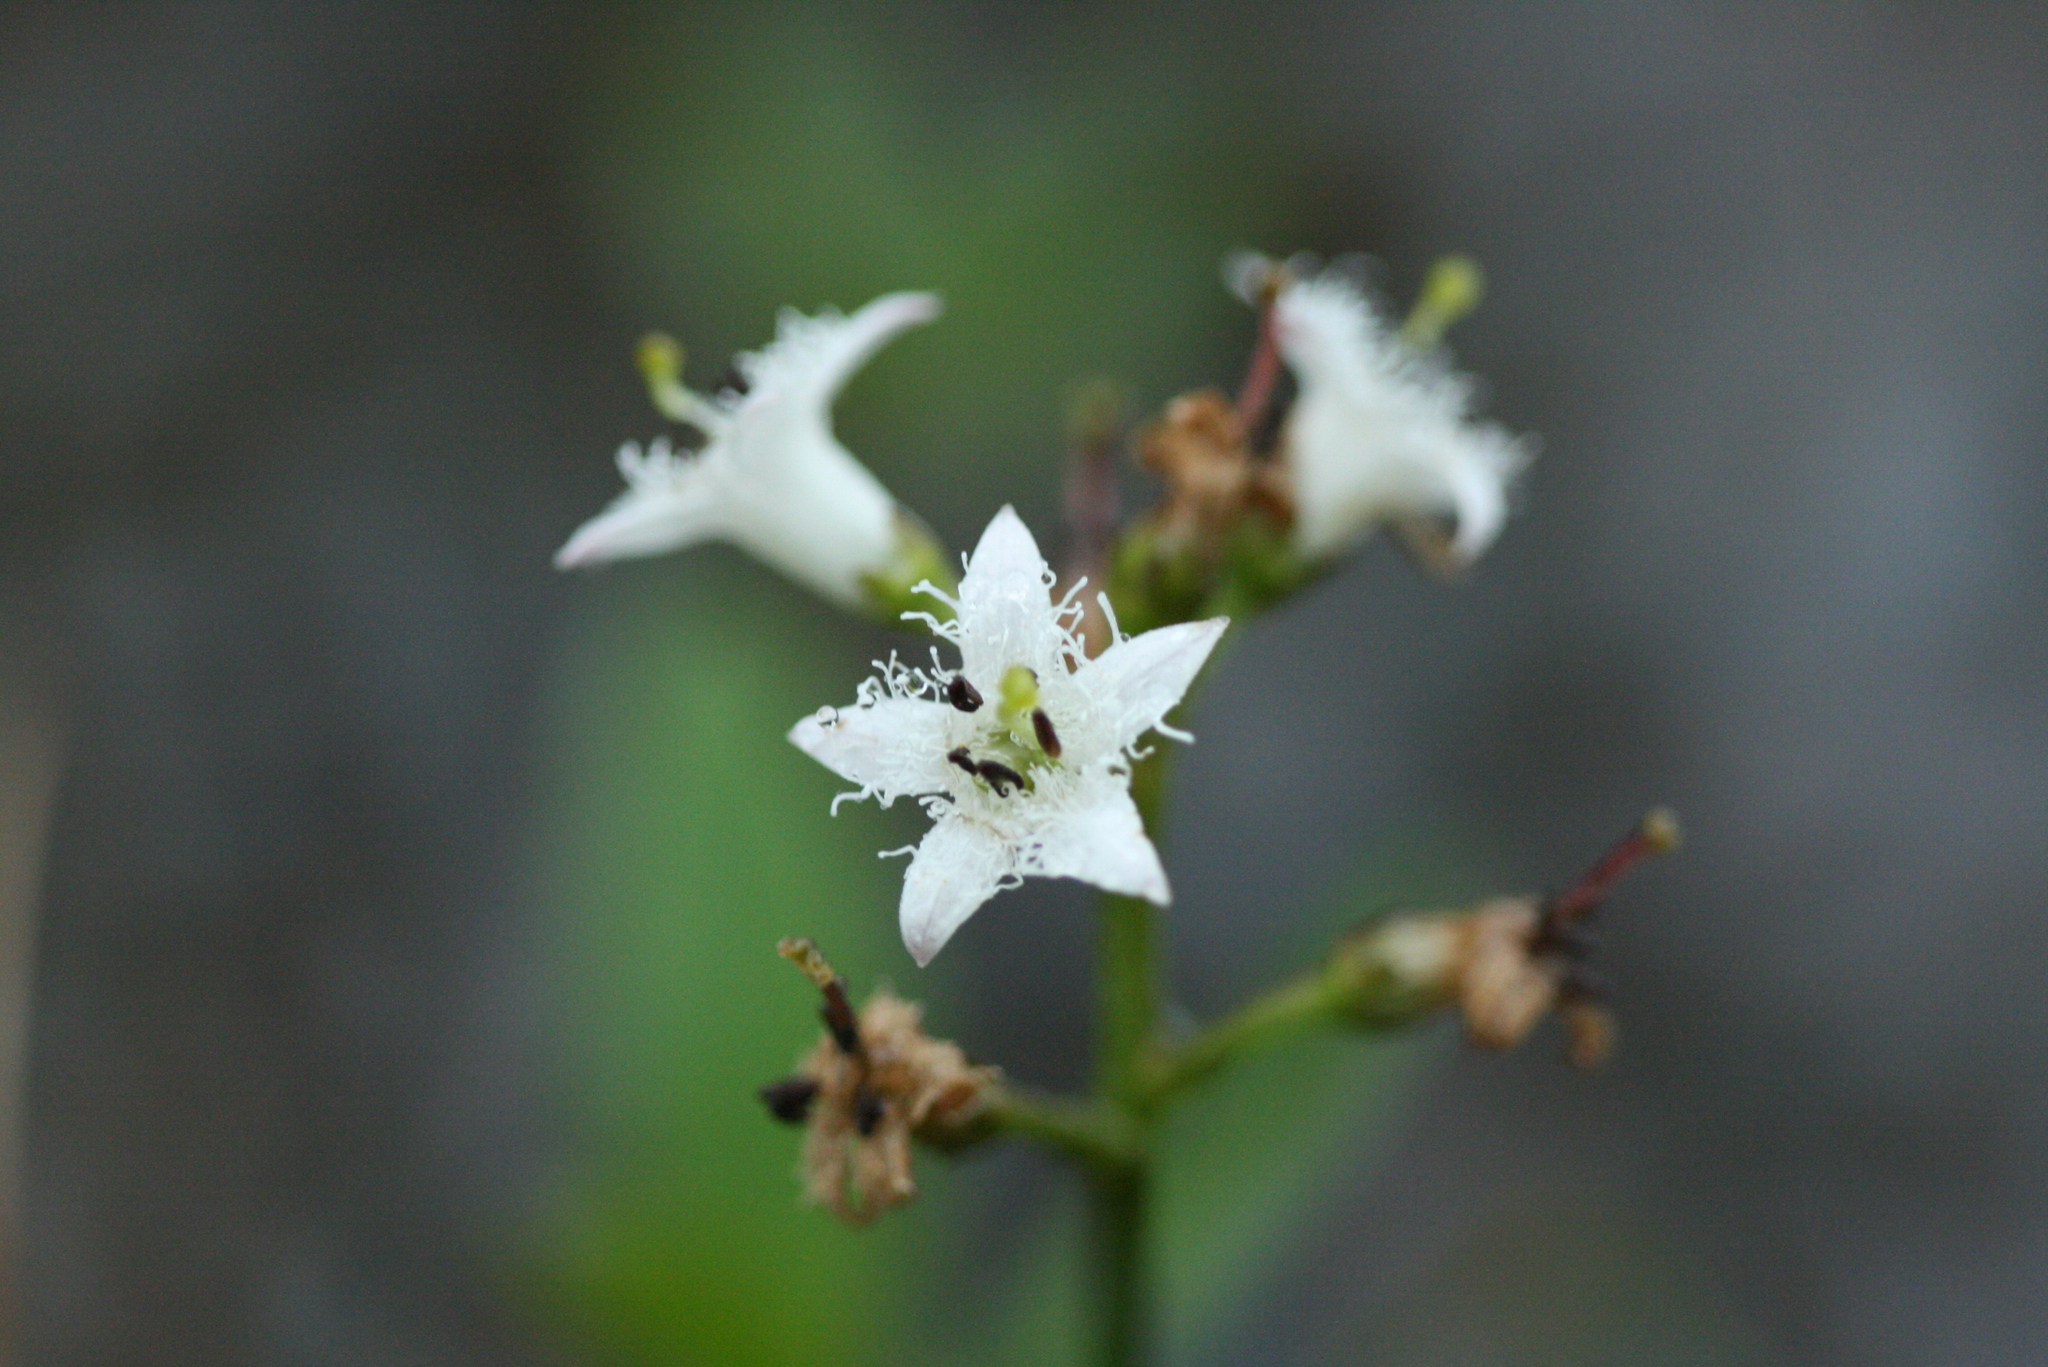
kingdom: Plantae
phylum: Tracheophyta
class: Magnoliopsida
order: Asterales
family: Menyanthaceae
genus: Menyanthes
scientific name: Menyanthes trifoliata
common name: Bogbean
